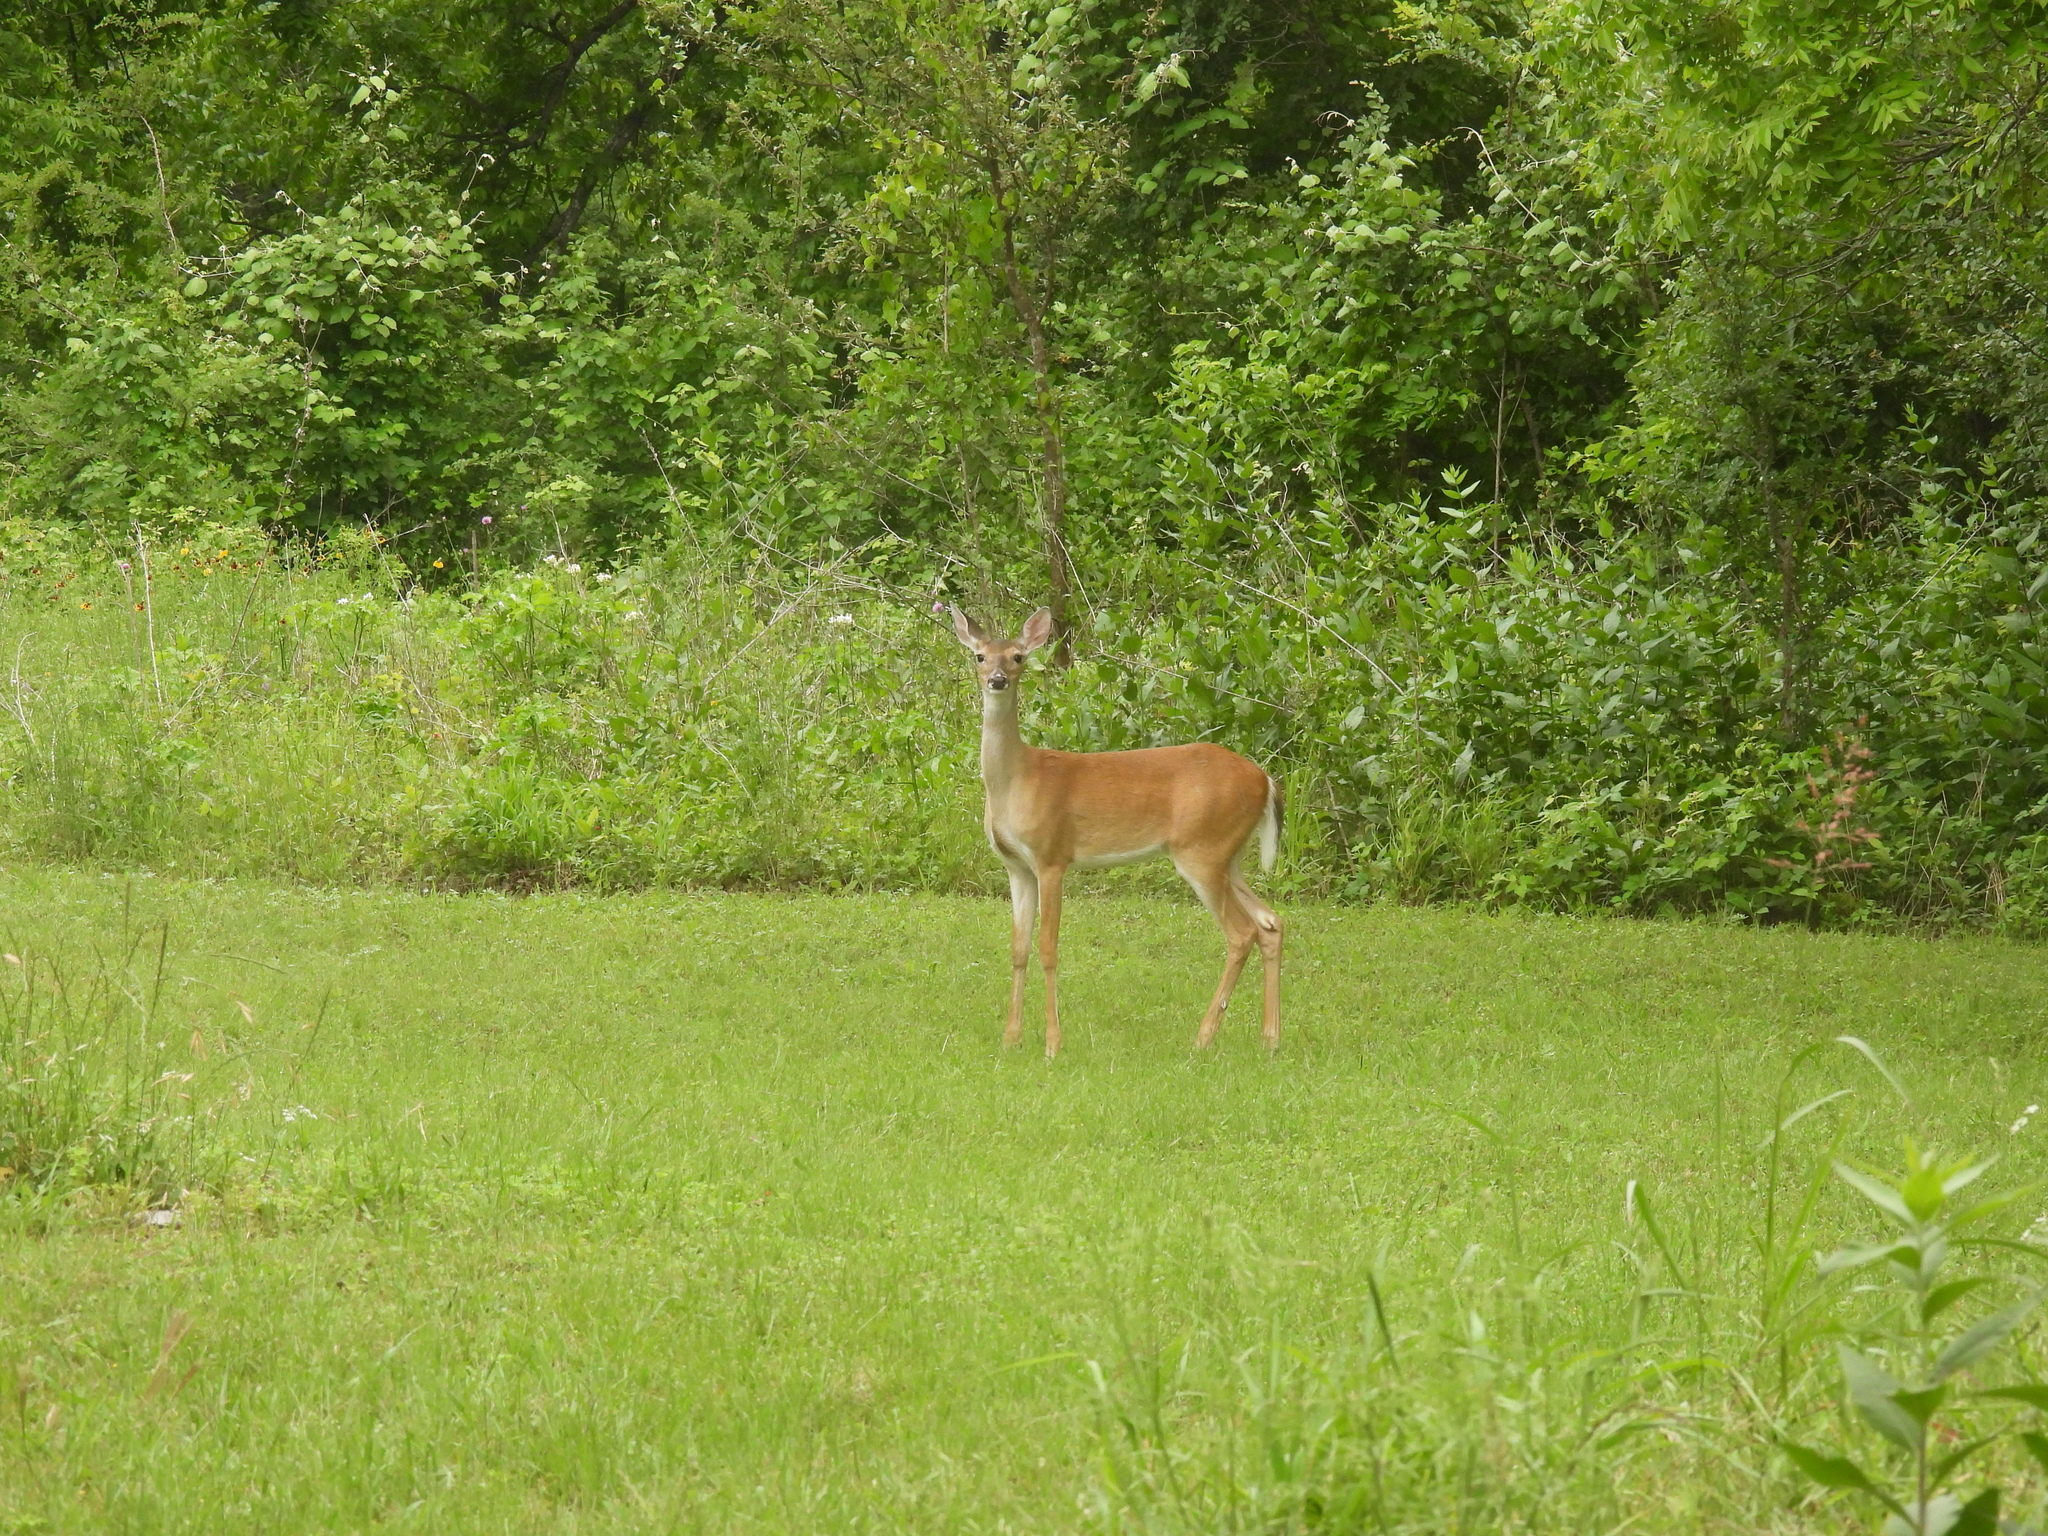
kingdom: Animalia
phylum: Chordata
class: Mammalia
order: Artiodactyla
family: Cervidae
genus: Odocoileus
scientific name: Odocoileus virginianus
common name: White-tailed deer
